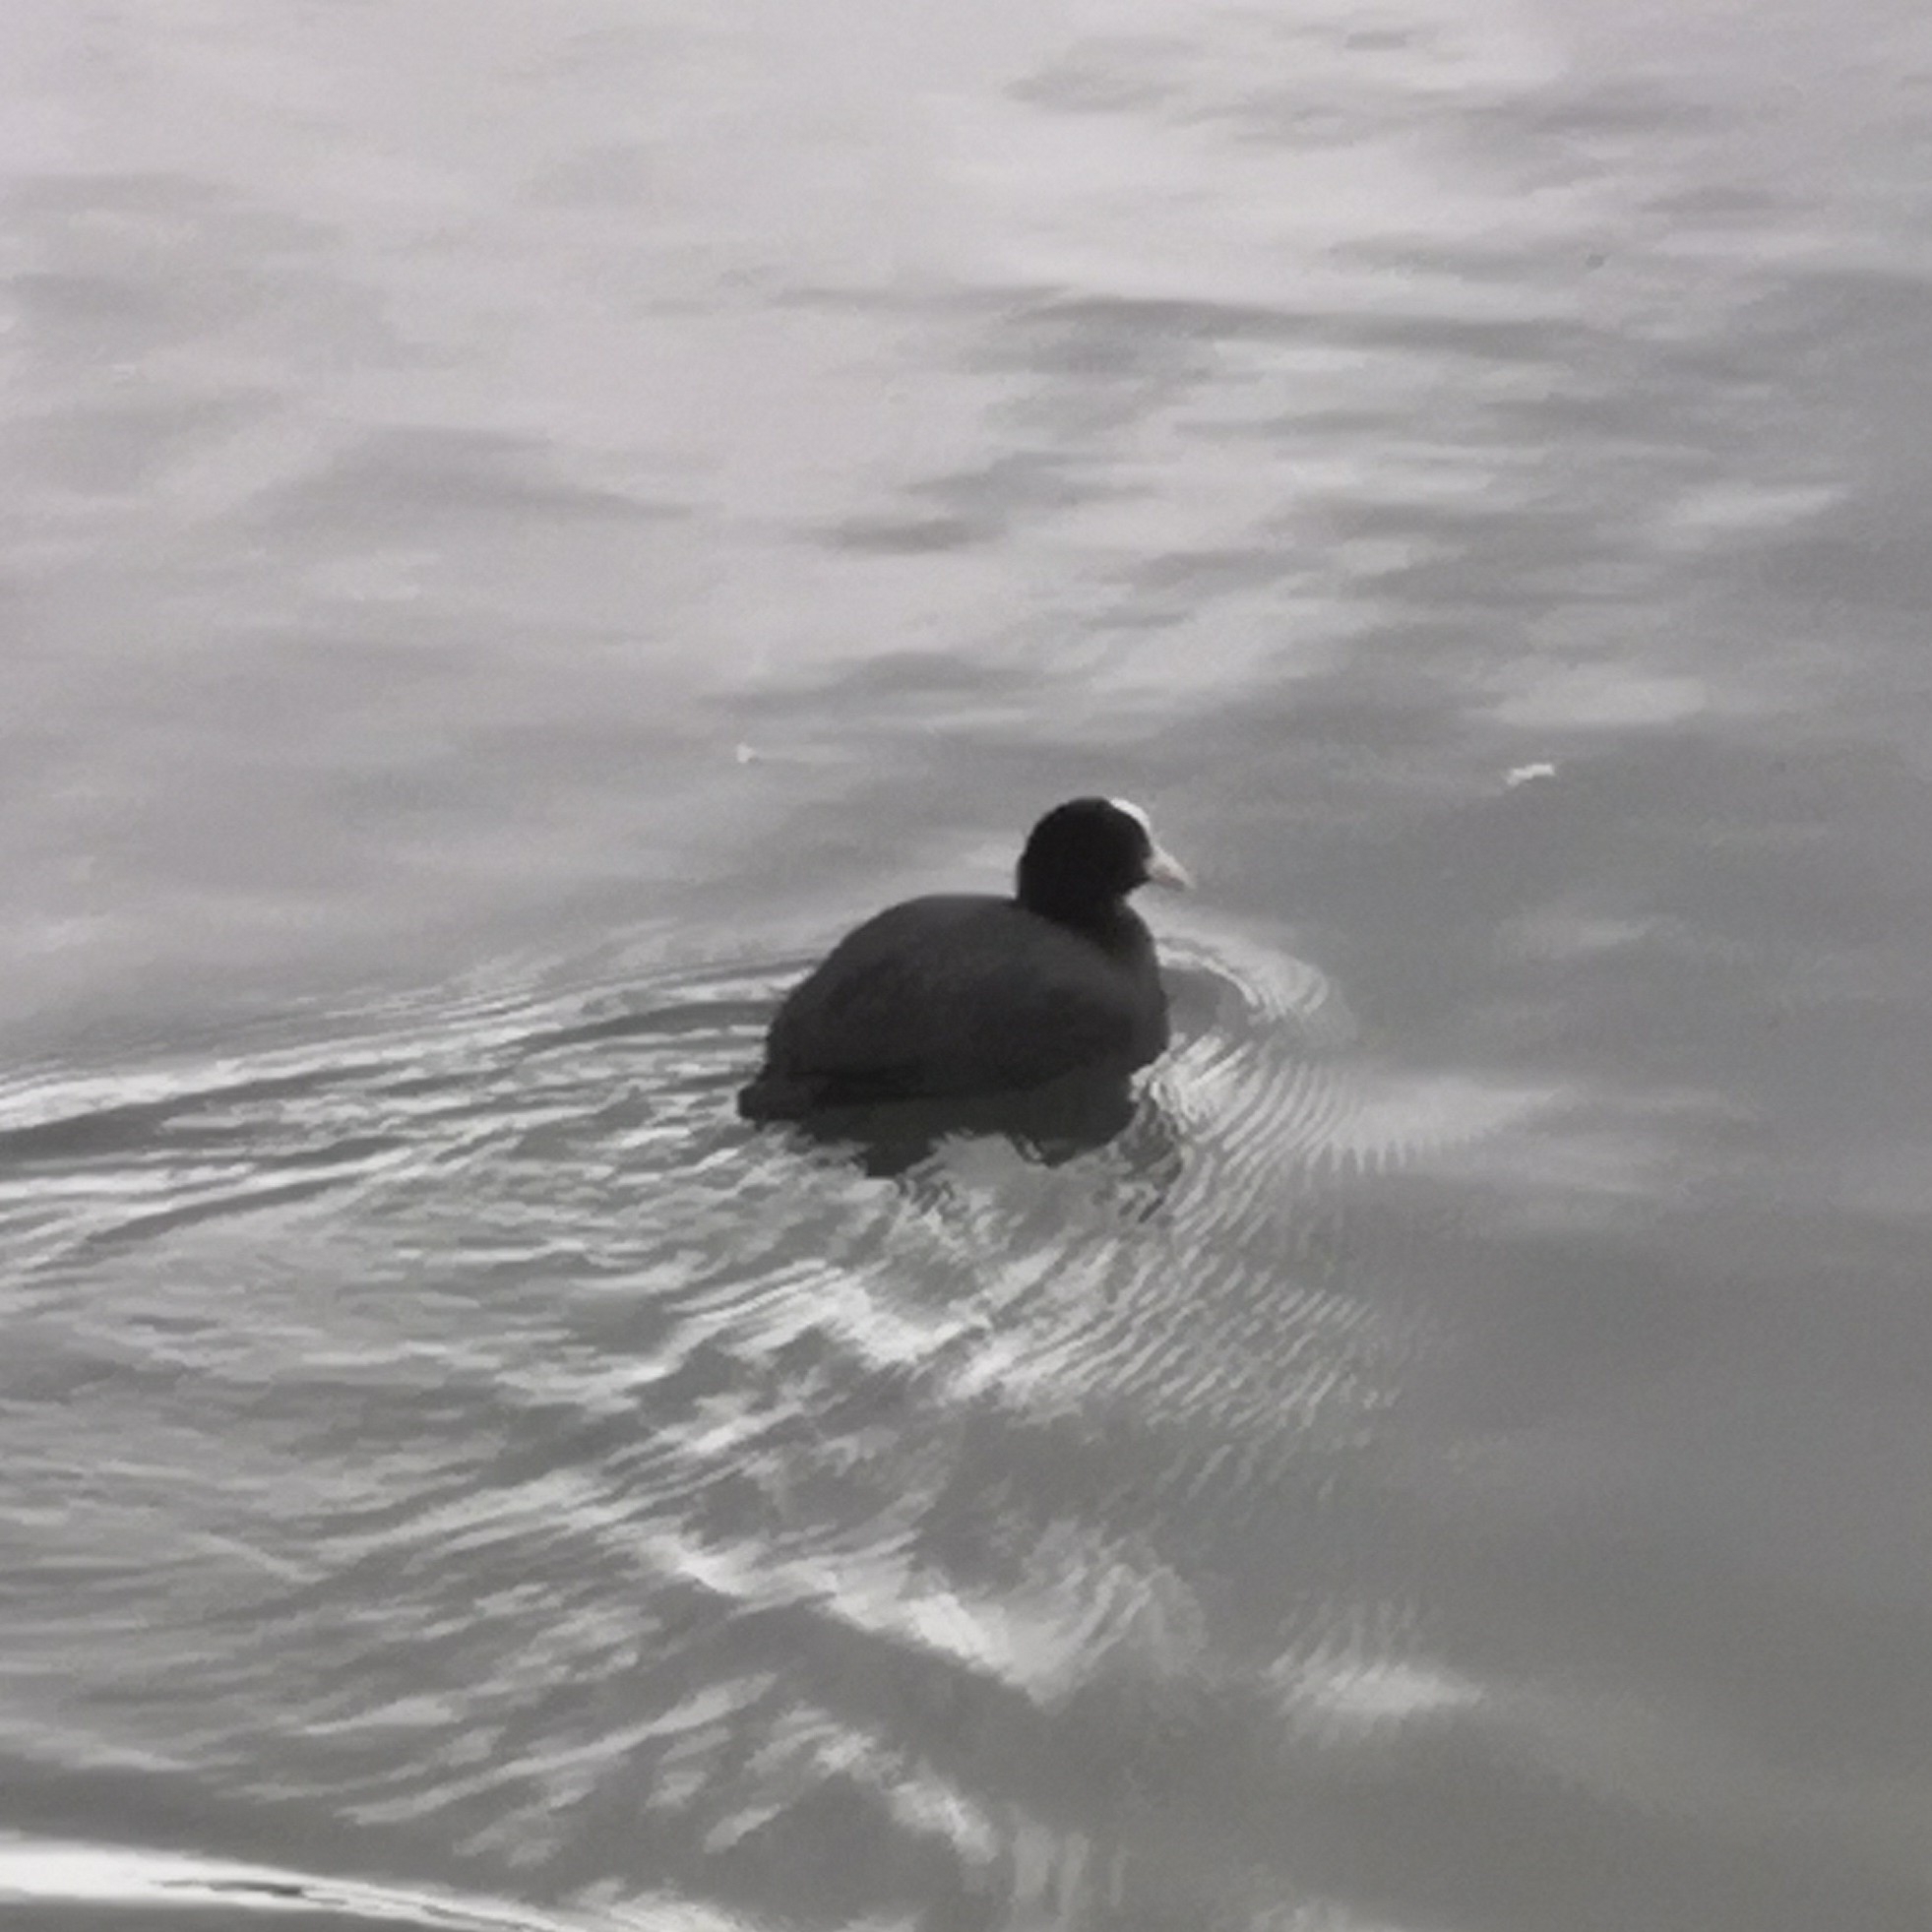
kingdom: Animalia
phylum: Chordata
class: Aves
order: Gruiformes
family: Rallidae
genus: Fulica
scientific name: Fulica atra
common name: Eurasian coot
